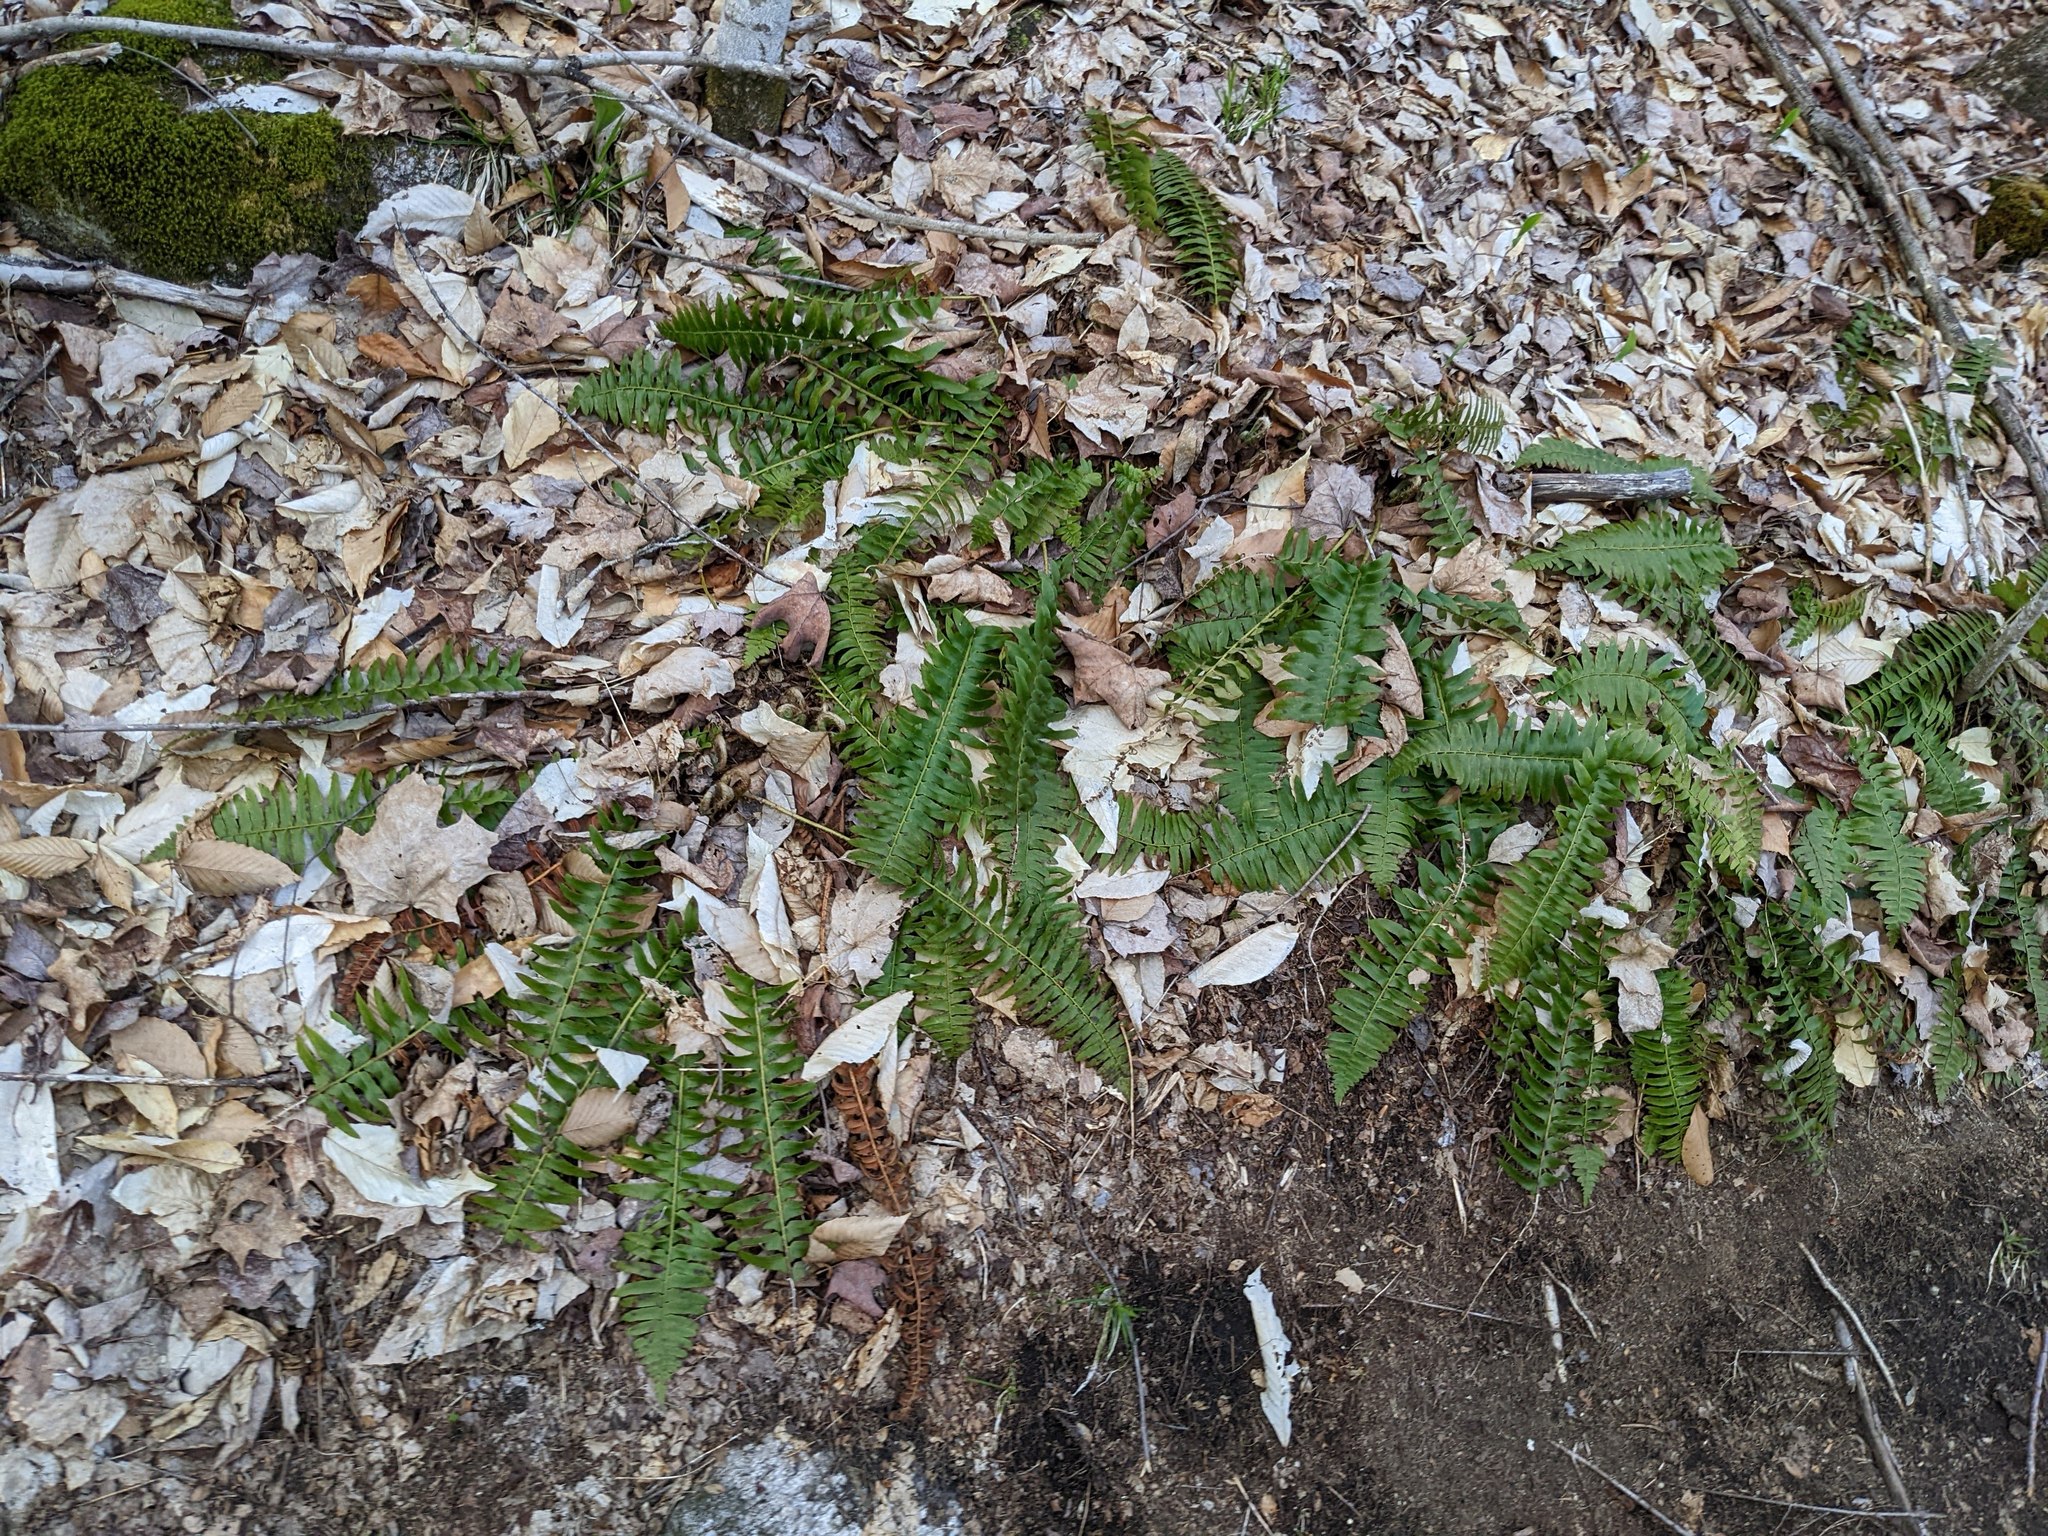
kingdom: Plantae
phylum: Tracheophyta
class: Polypodiopsida
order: Polypodiales
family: Dryopteridaceae
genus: Polystichum
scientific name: Polystichum acrostichoides
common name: Christmas fern
